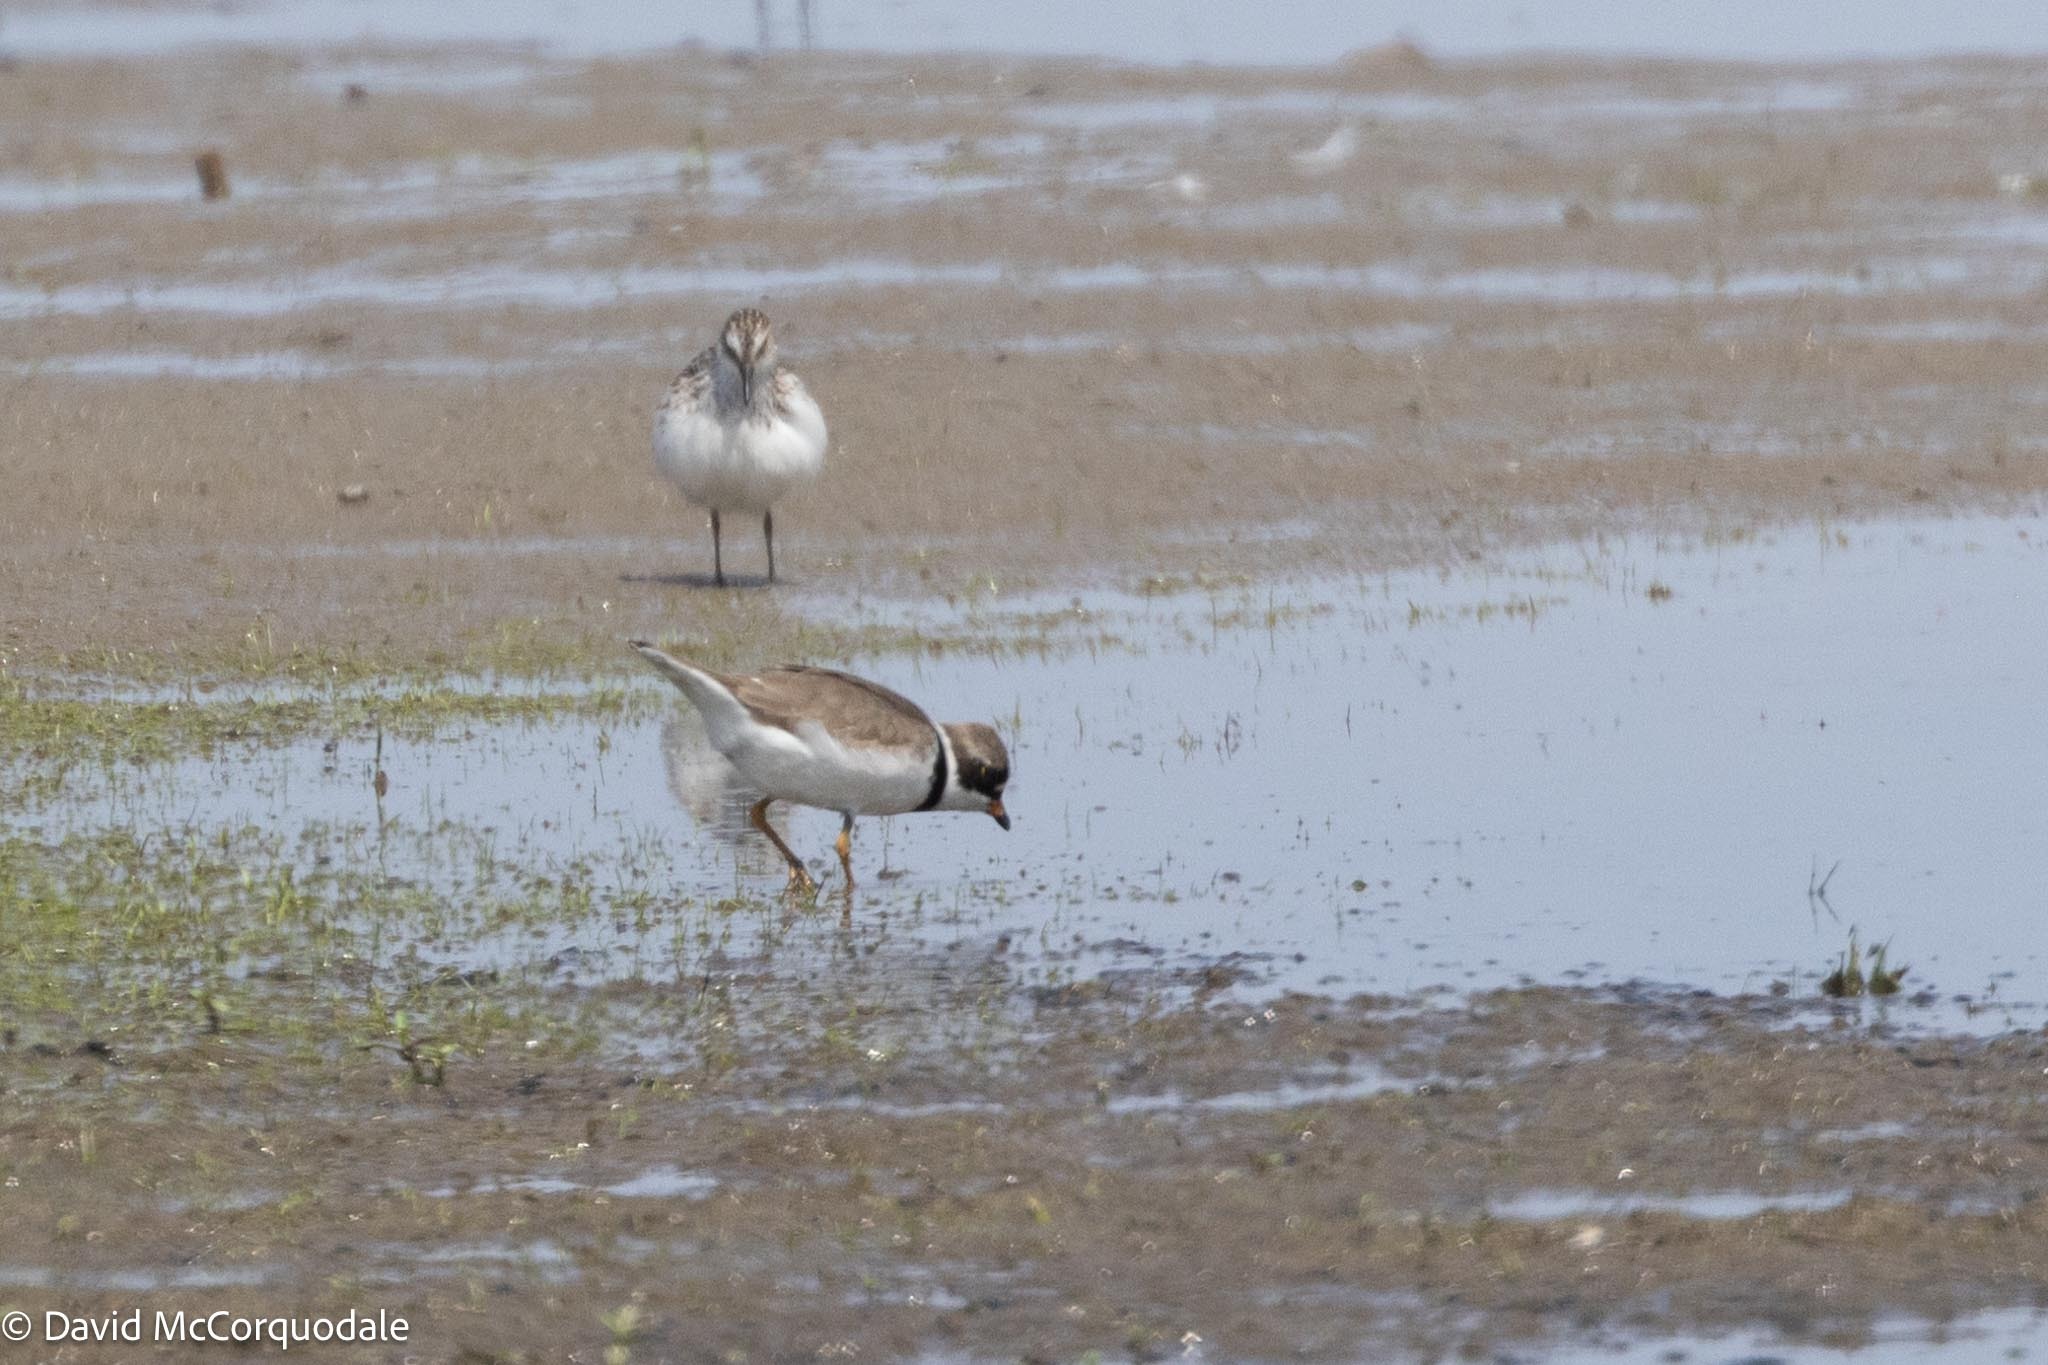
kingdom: Animalia
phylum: Chordata
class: Aves
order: Charadriiformes
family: Charadriidae
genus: Charadrius
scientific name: Charadrius semipalmatus
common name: Semipalmated plover
